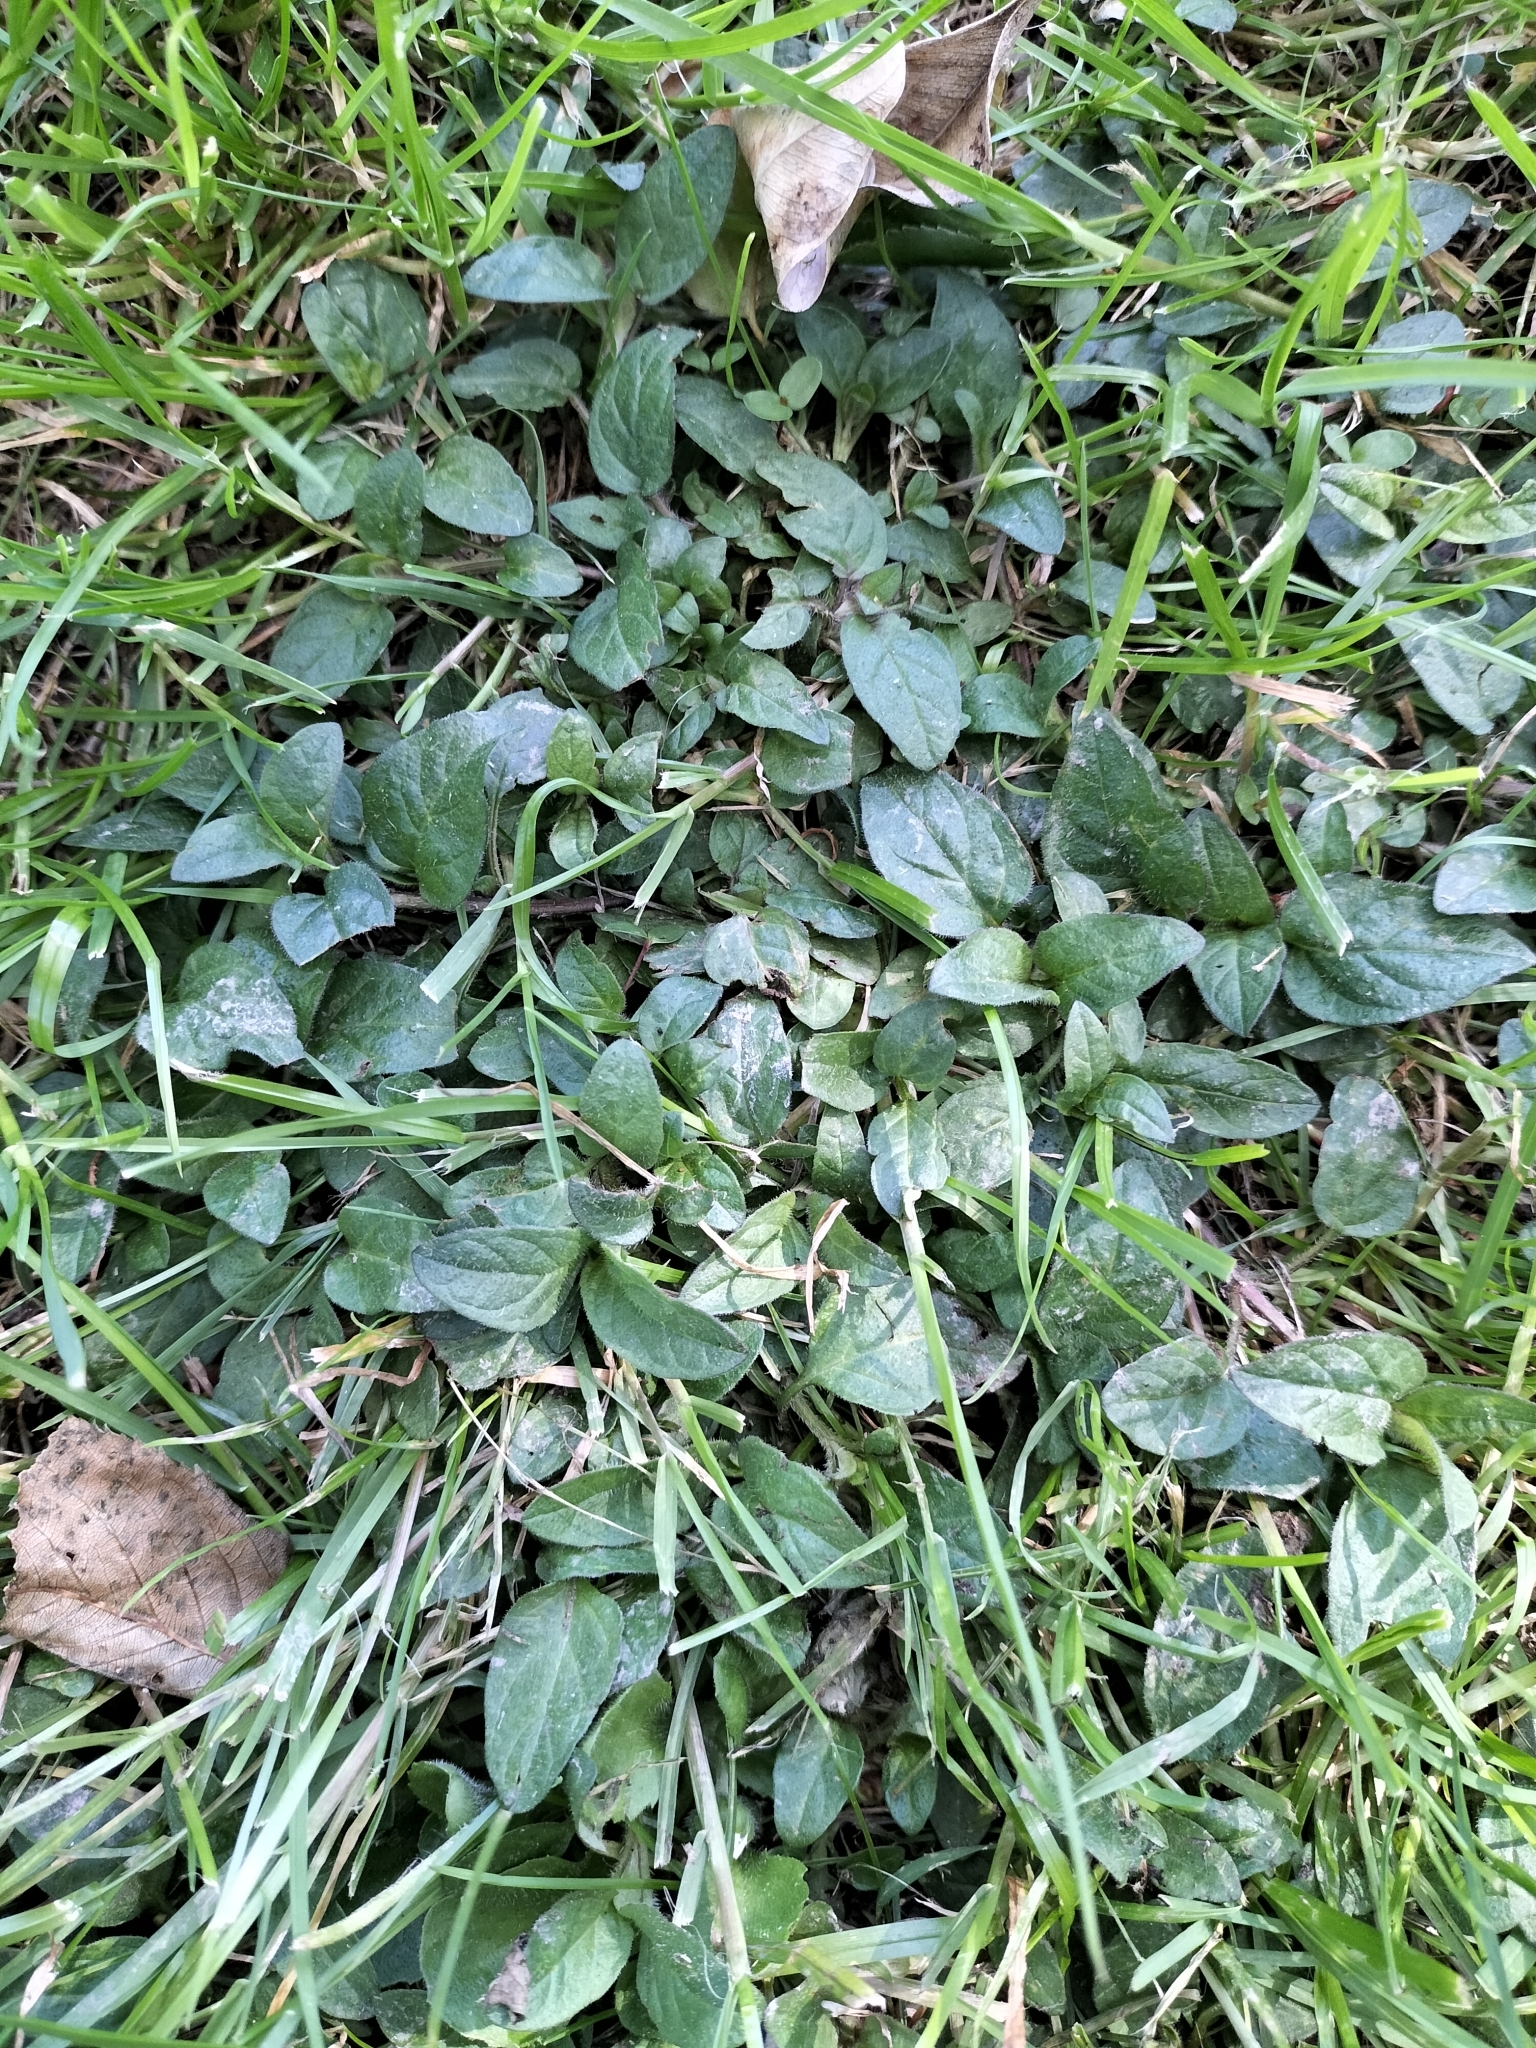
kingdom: Plantae
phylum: Tracheophyta
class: Magnoliopsida
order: Lamiales
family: Lamiaceae
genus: Prunella
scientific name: Prunella vulgaris
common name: Heal-all
